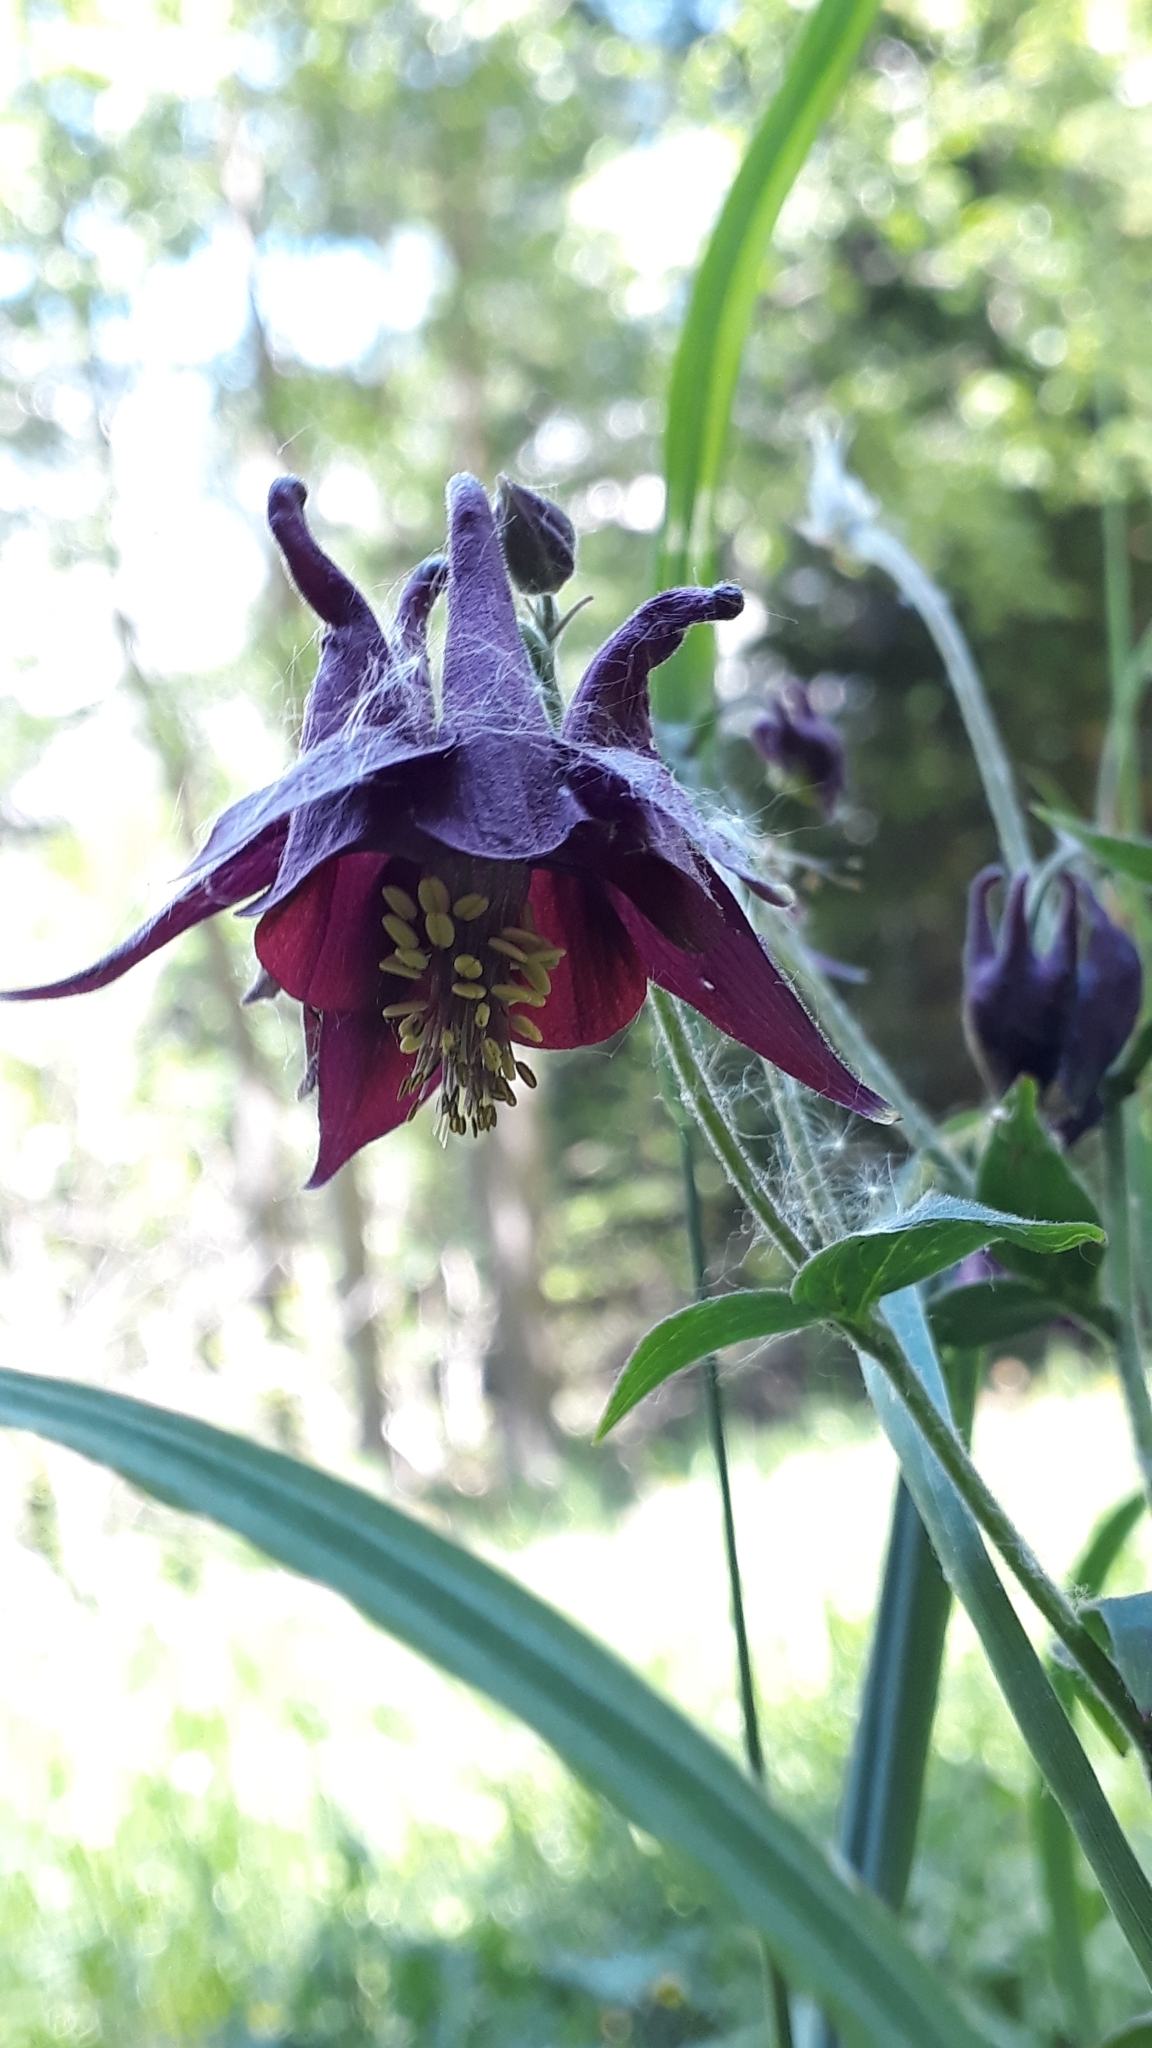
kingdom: Plantae
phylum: Tracheophyta
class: Magnoliopsida
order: Ranunculales
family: Ranunculaceae
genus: Aquilegia
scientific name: Aquilegia atrata
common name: Dark columbine
